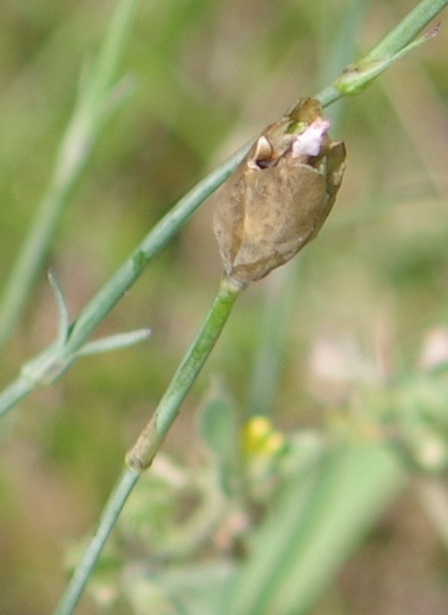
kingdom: Plantae
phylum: Tracheophyta
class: Magnoliopsida
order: Caryophyllales
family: Caryophyllaceae
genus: Petrorhagia
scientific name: Petrorhagia prolifera
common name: Proliferous pink
